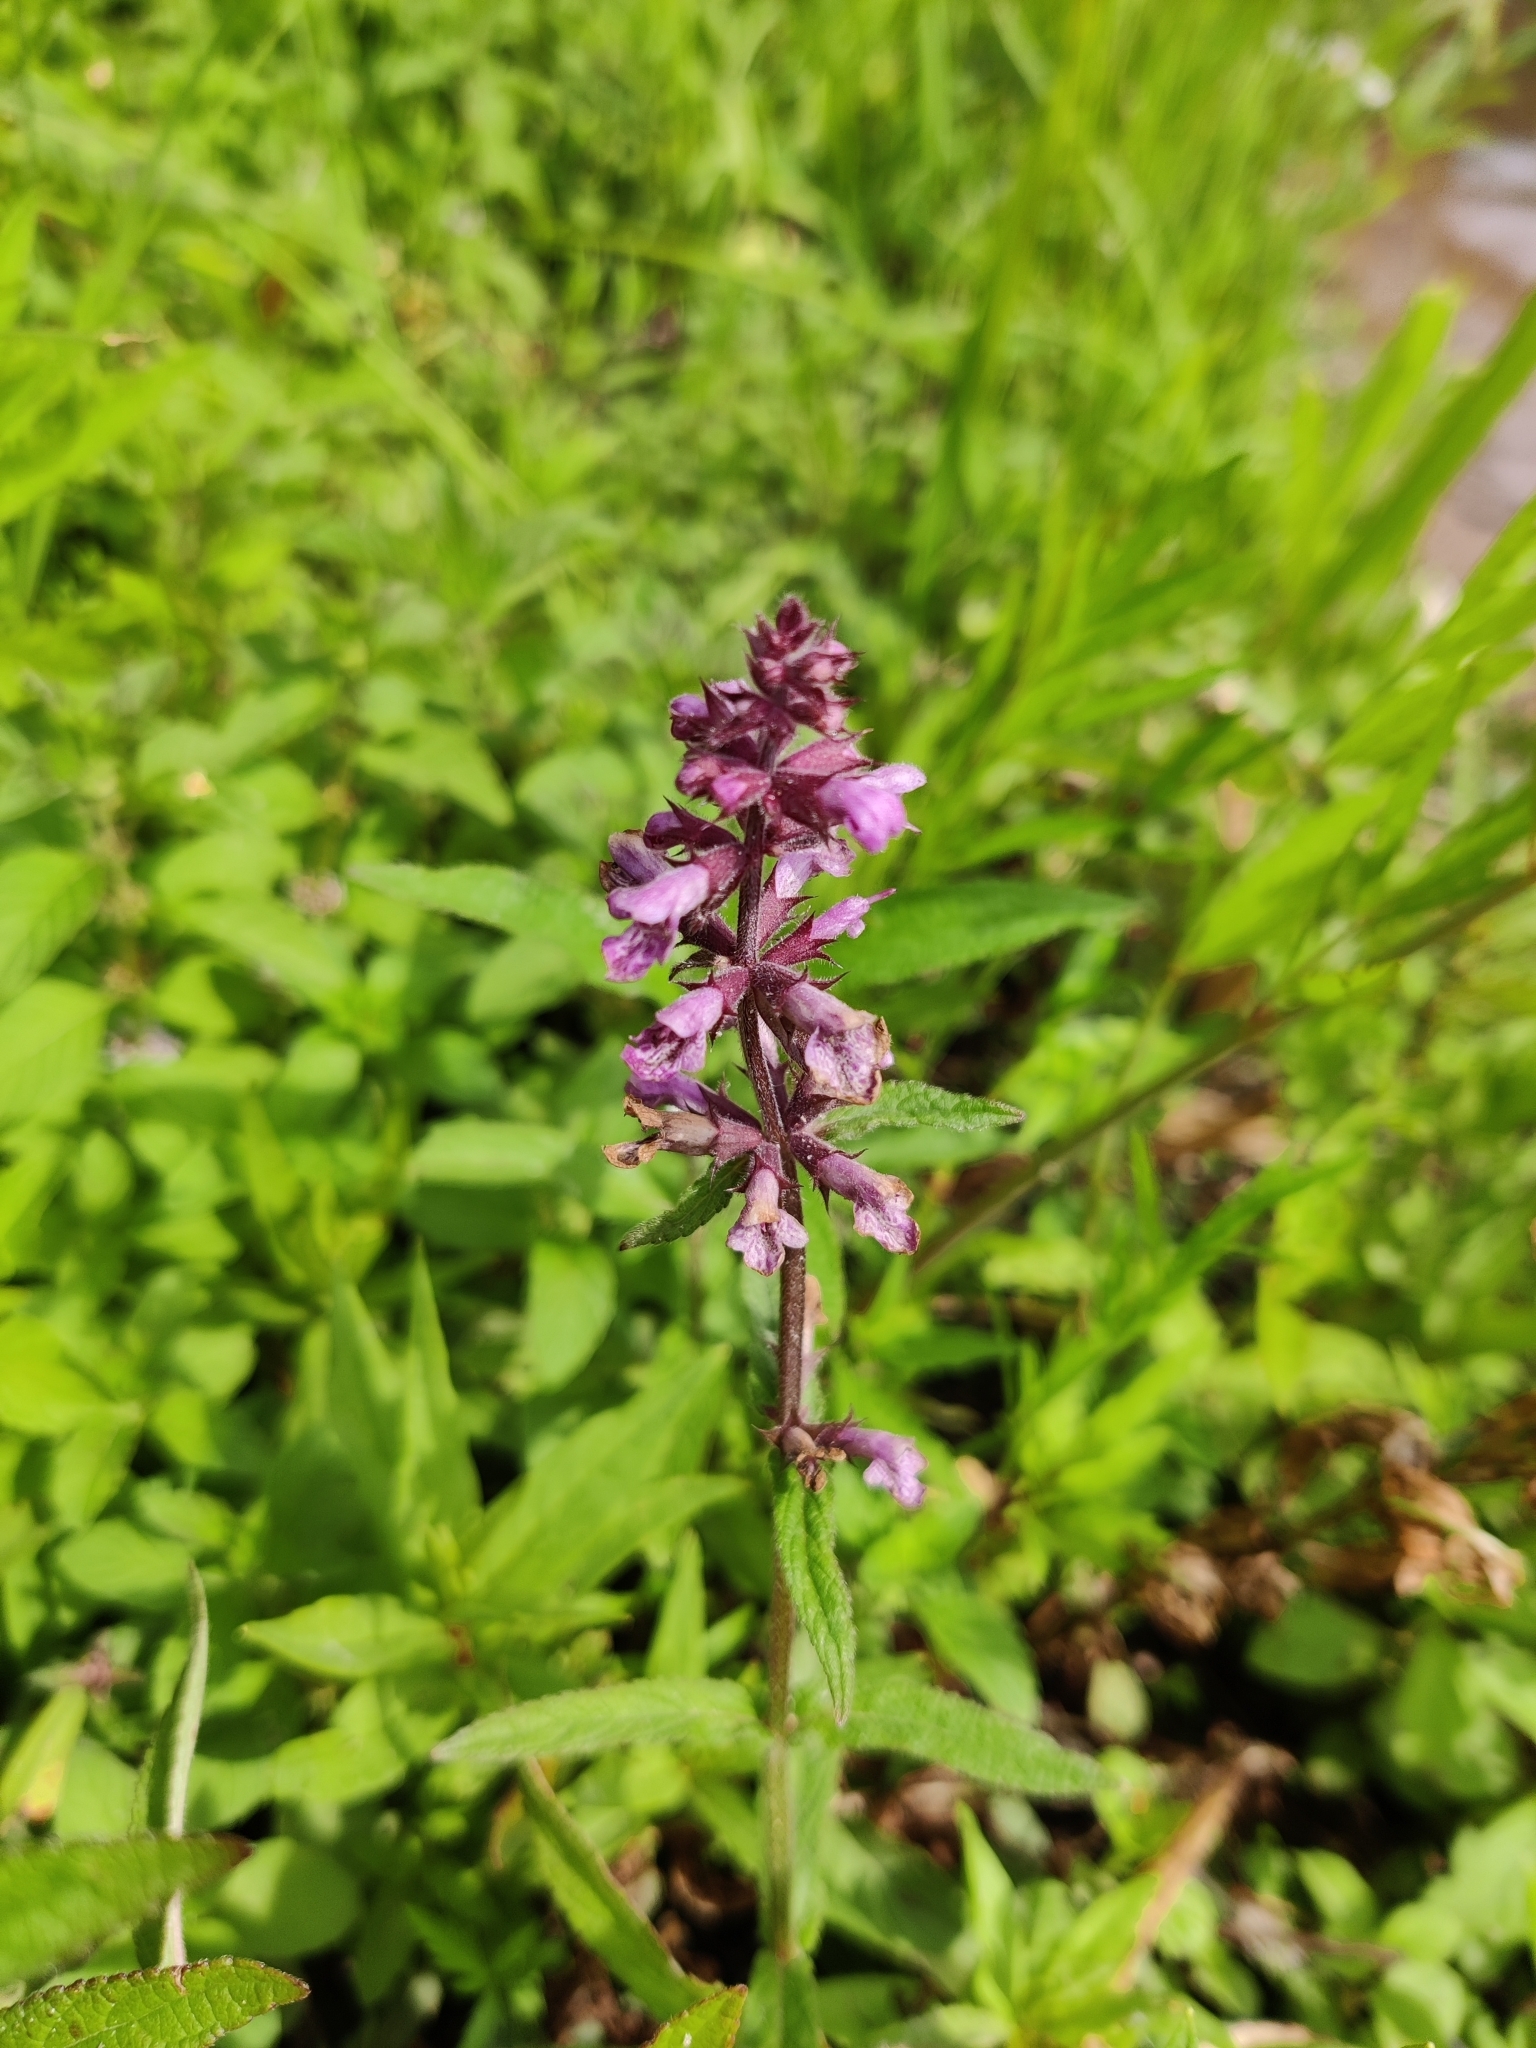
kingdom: Plantae
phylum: Tracheophyta
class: Magnoliopsida
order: Lamiales
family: Lamiaceae
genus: Stachys
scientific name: Stachys palustris
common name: Marsh woundwort
